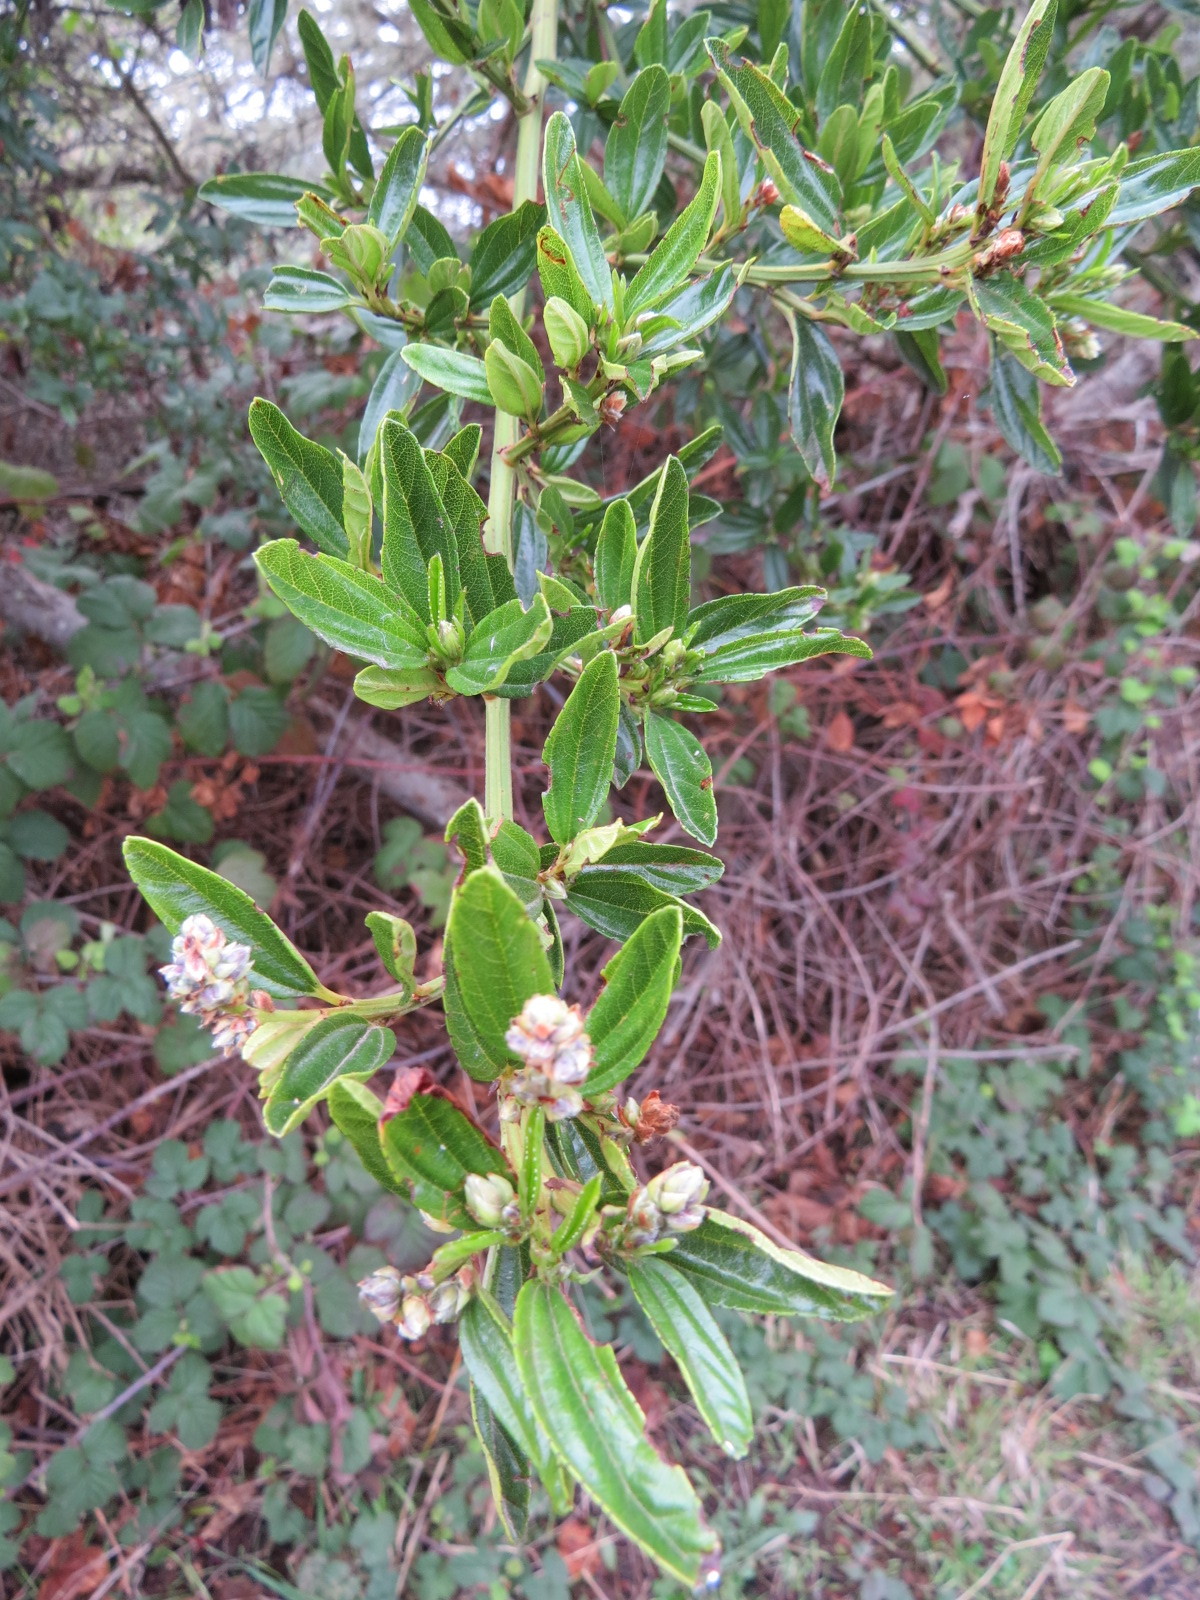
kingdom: Plantae
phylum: Tracheophyta
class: Magnoliopsida
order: Rosales
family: Rhamnaceae
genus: Ceanothus
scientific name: Ceanothus thyrsiflorus
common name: California-lilac
